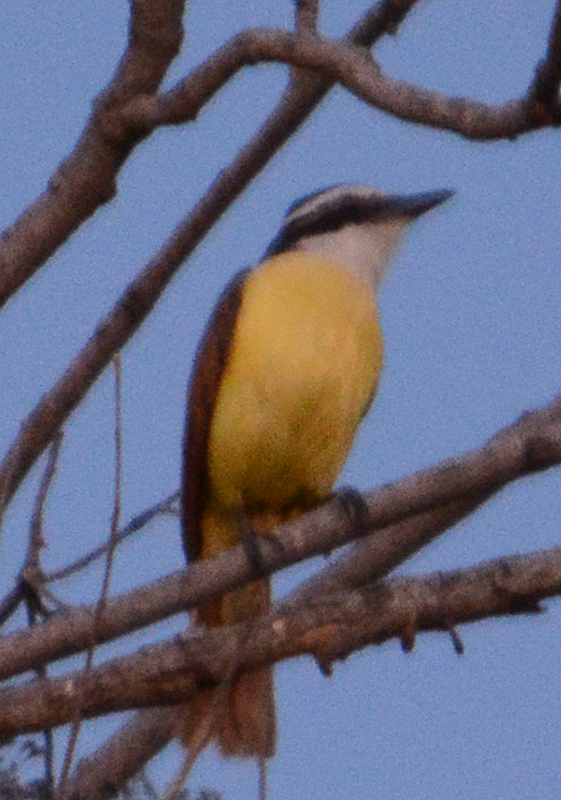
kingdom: Animalia
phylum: Chordata
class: Aves
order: Passeriformes
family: Tyrannidae
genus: Pitangus
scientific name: Pitangus sulphuratus
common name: Great kiskadee
